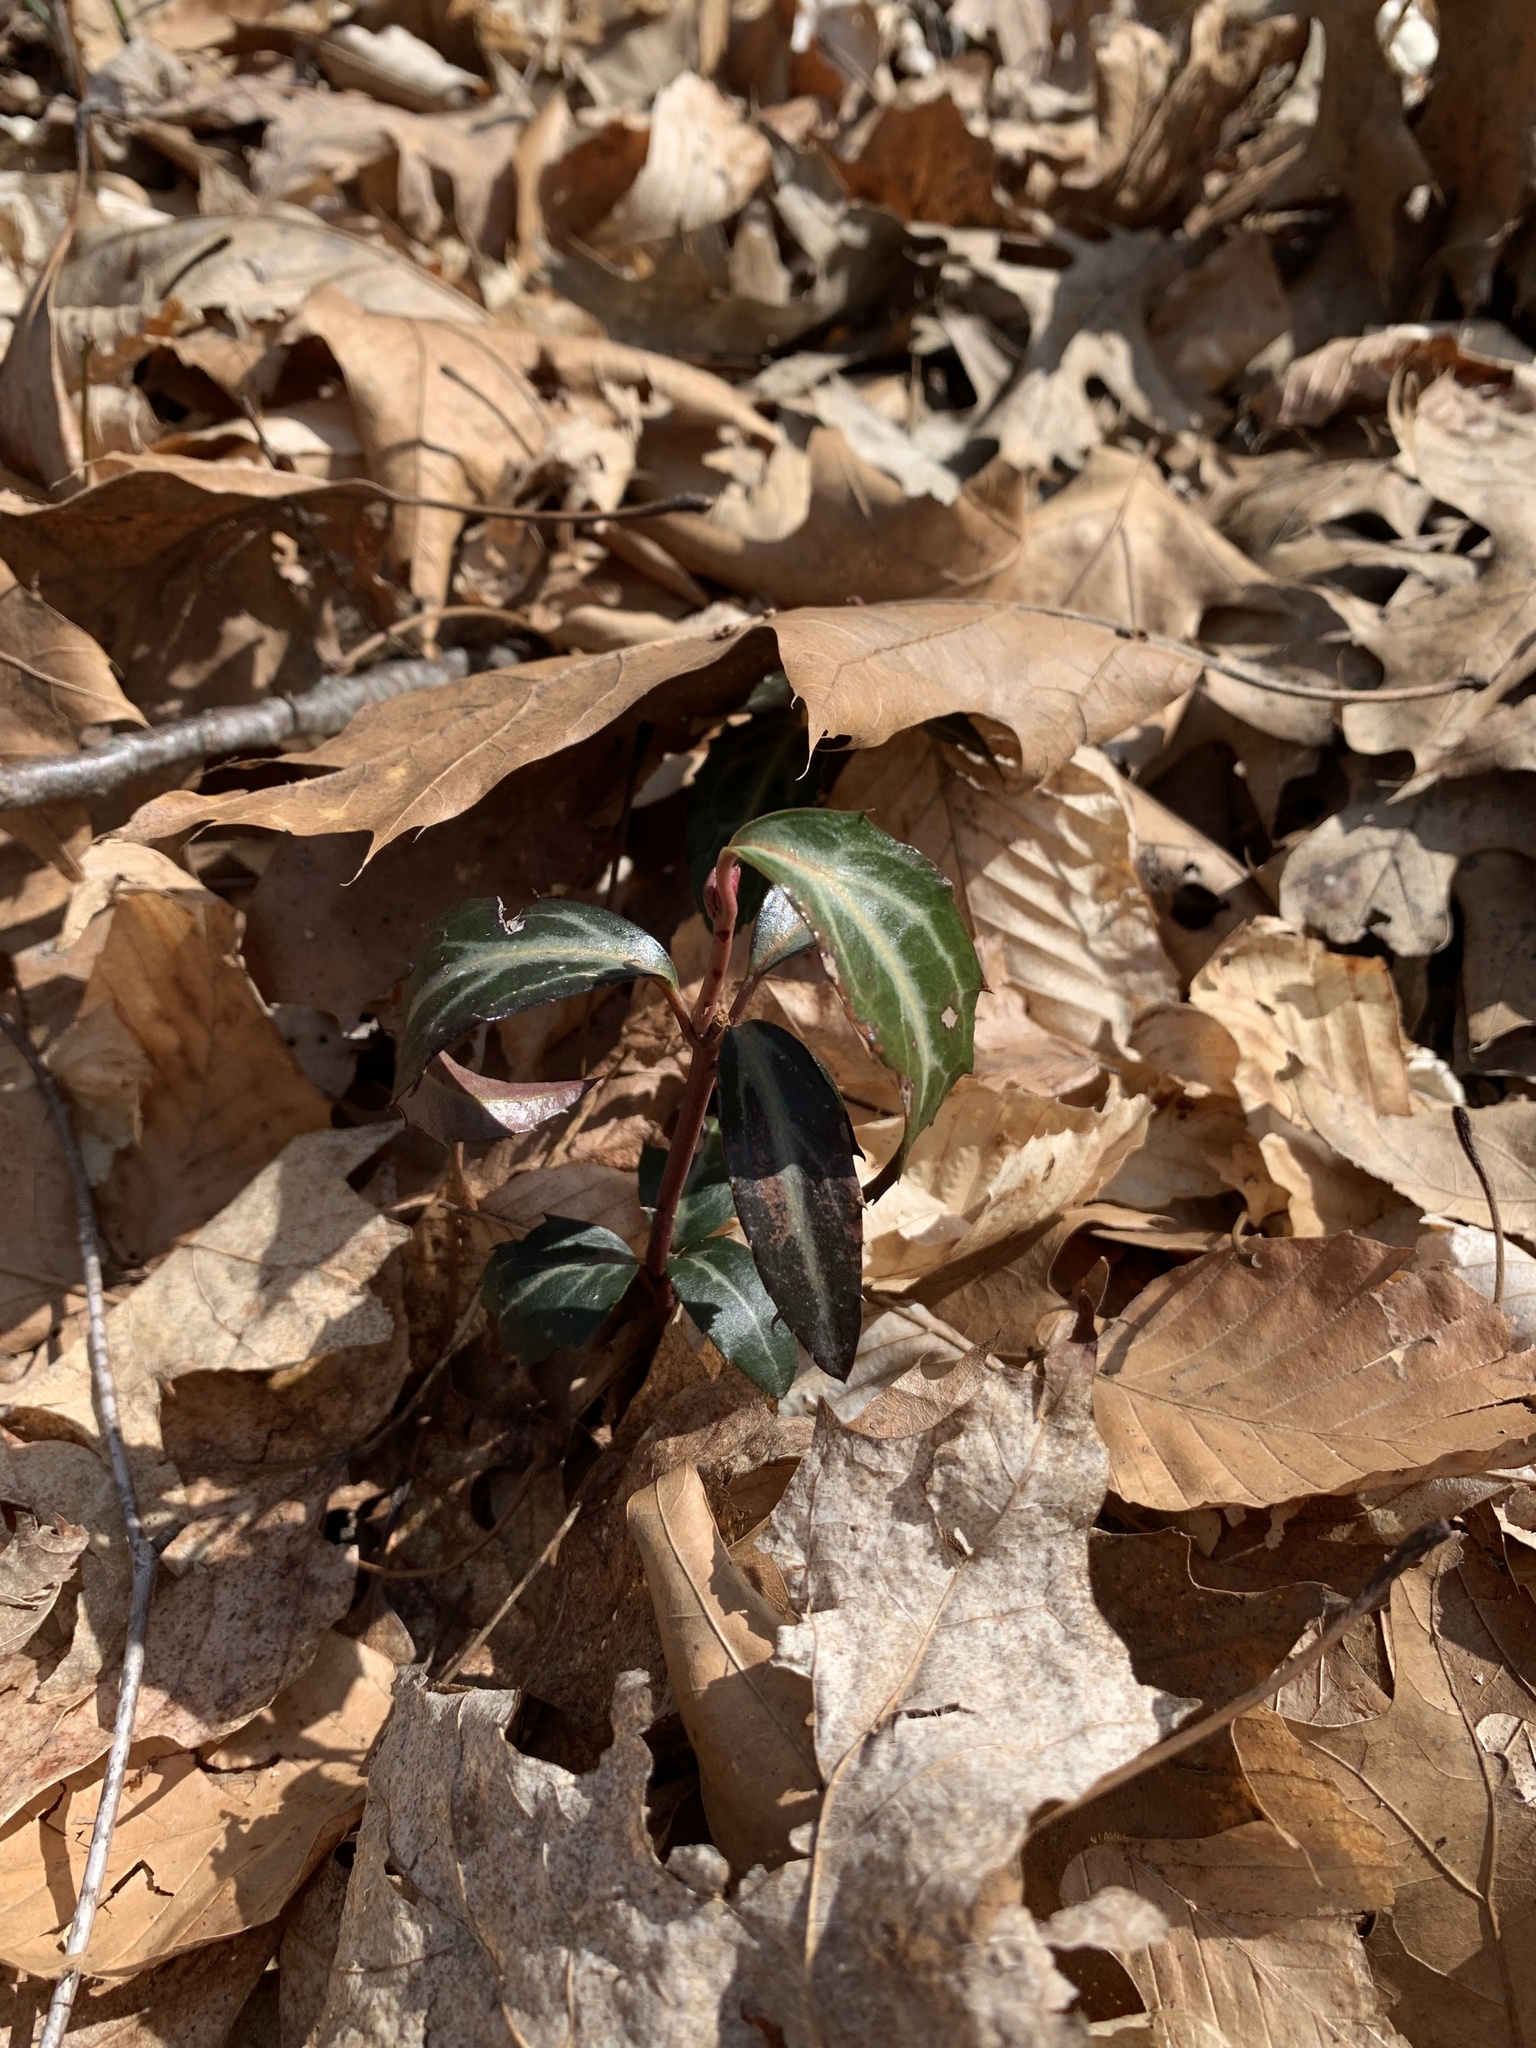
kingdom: Plantae
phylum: Tracheophyta
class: Magnoliopsida
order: Ericales
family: Ericaceae
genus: Chimaphila
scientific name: Chimaphila maculata
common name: Spotted pipsissewa
